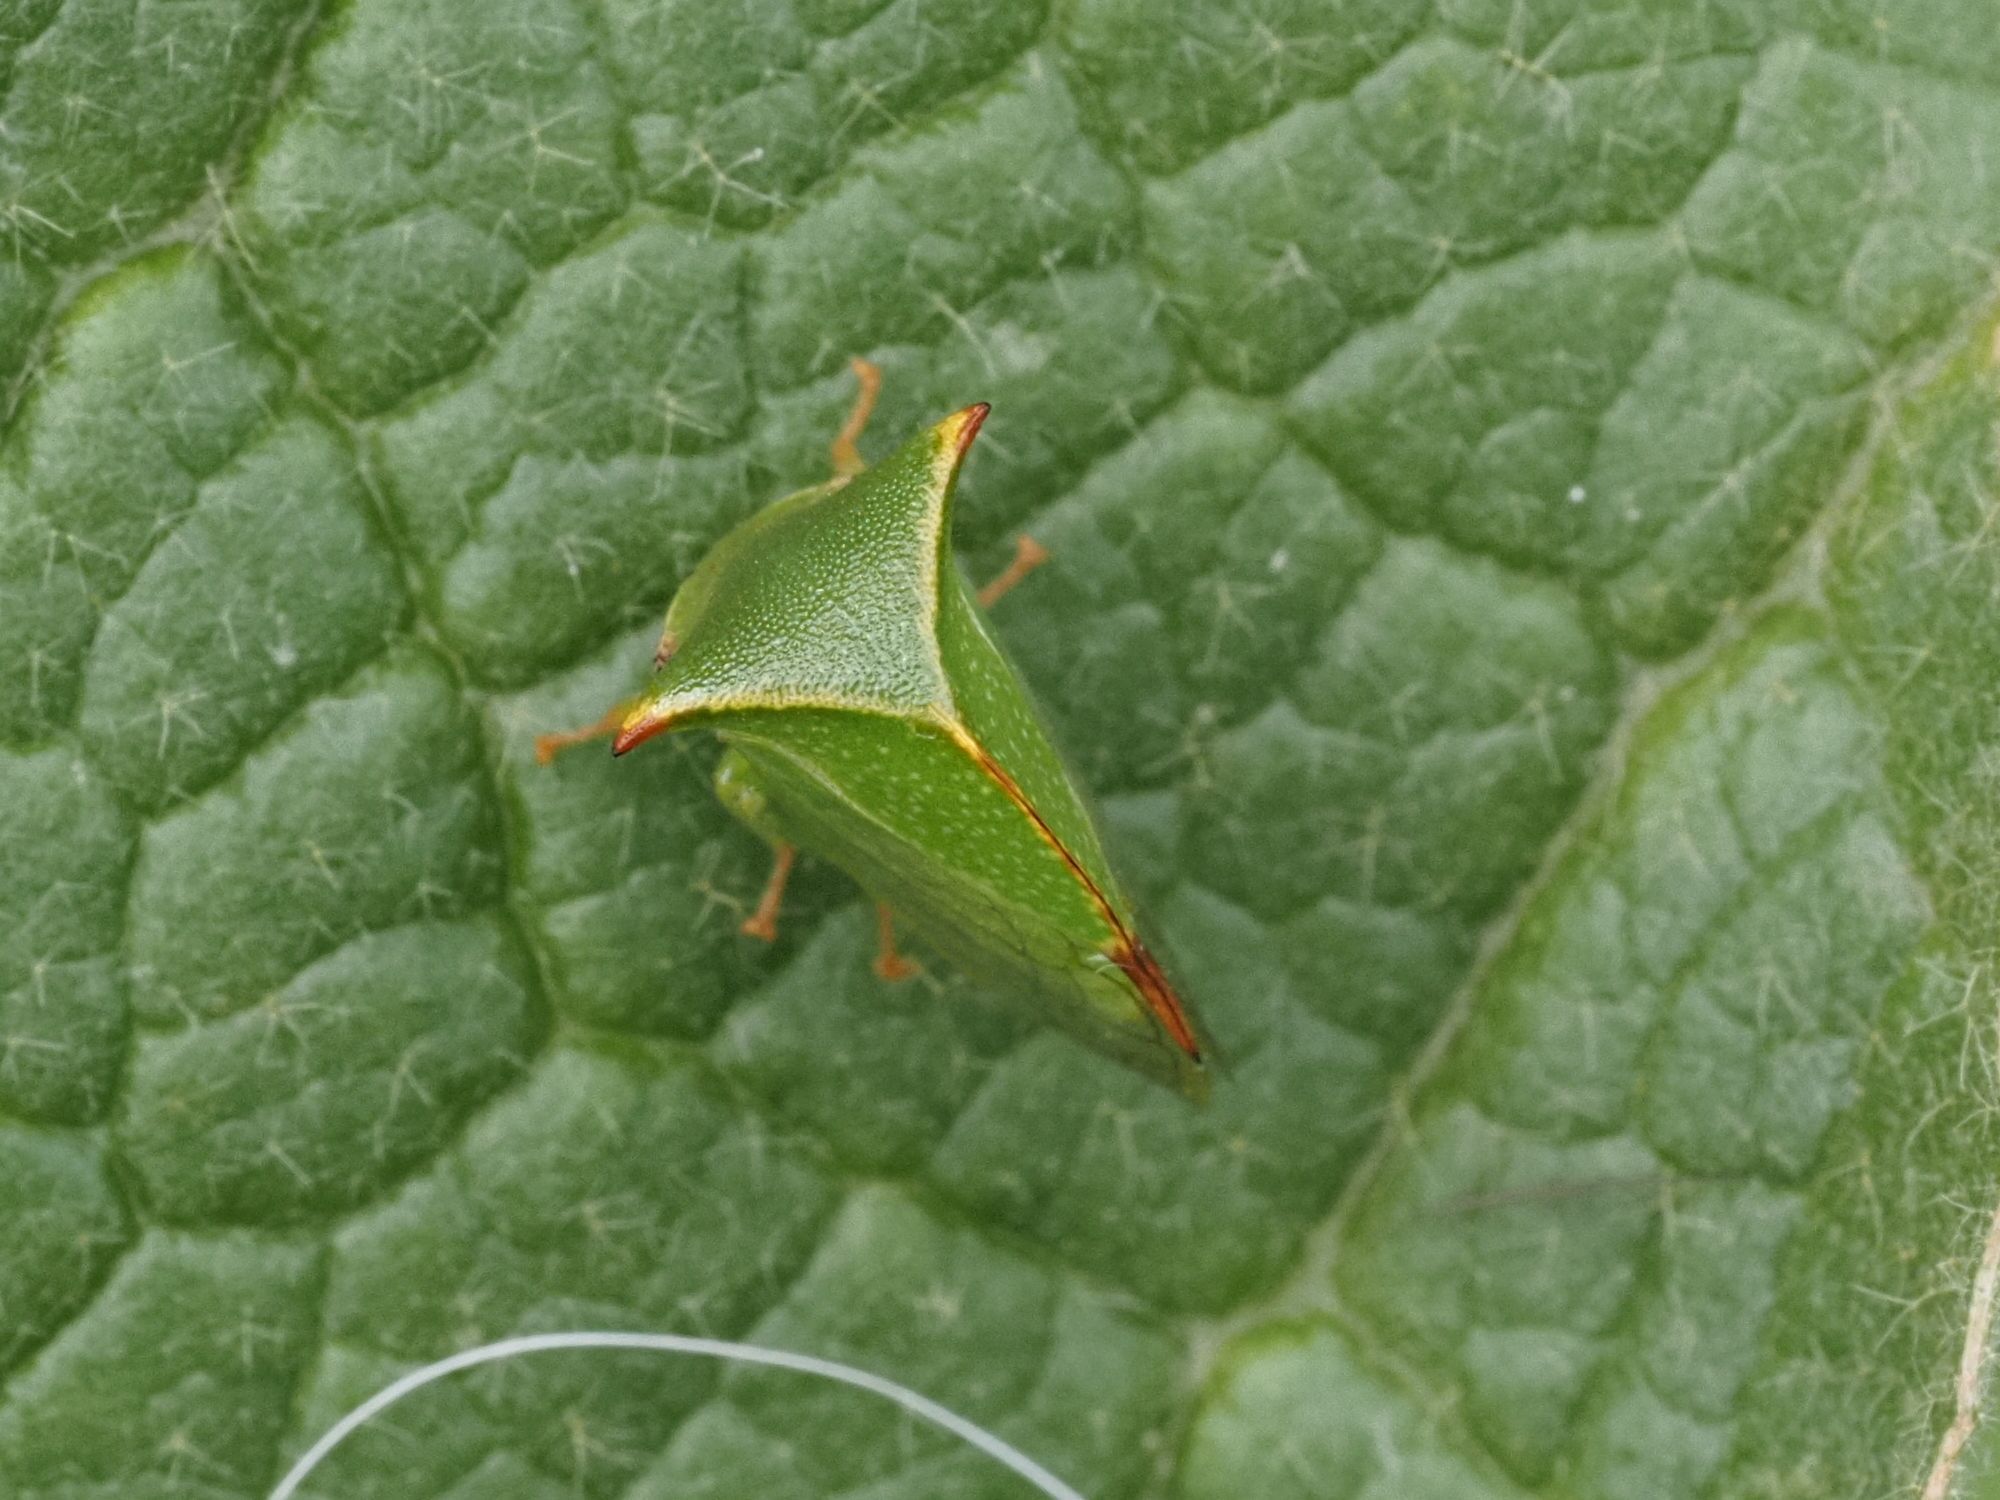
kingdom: Animalia
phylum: Arthropoda
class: Insecta
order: Hemiptera
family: Membracidae
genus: Stictocephala
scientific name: Stictocephala bisonia
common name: American buffalo treehopper
